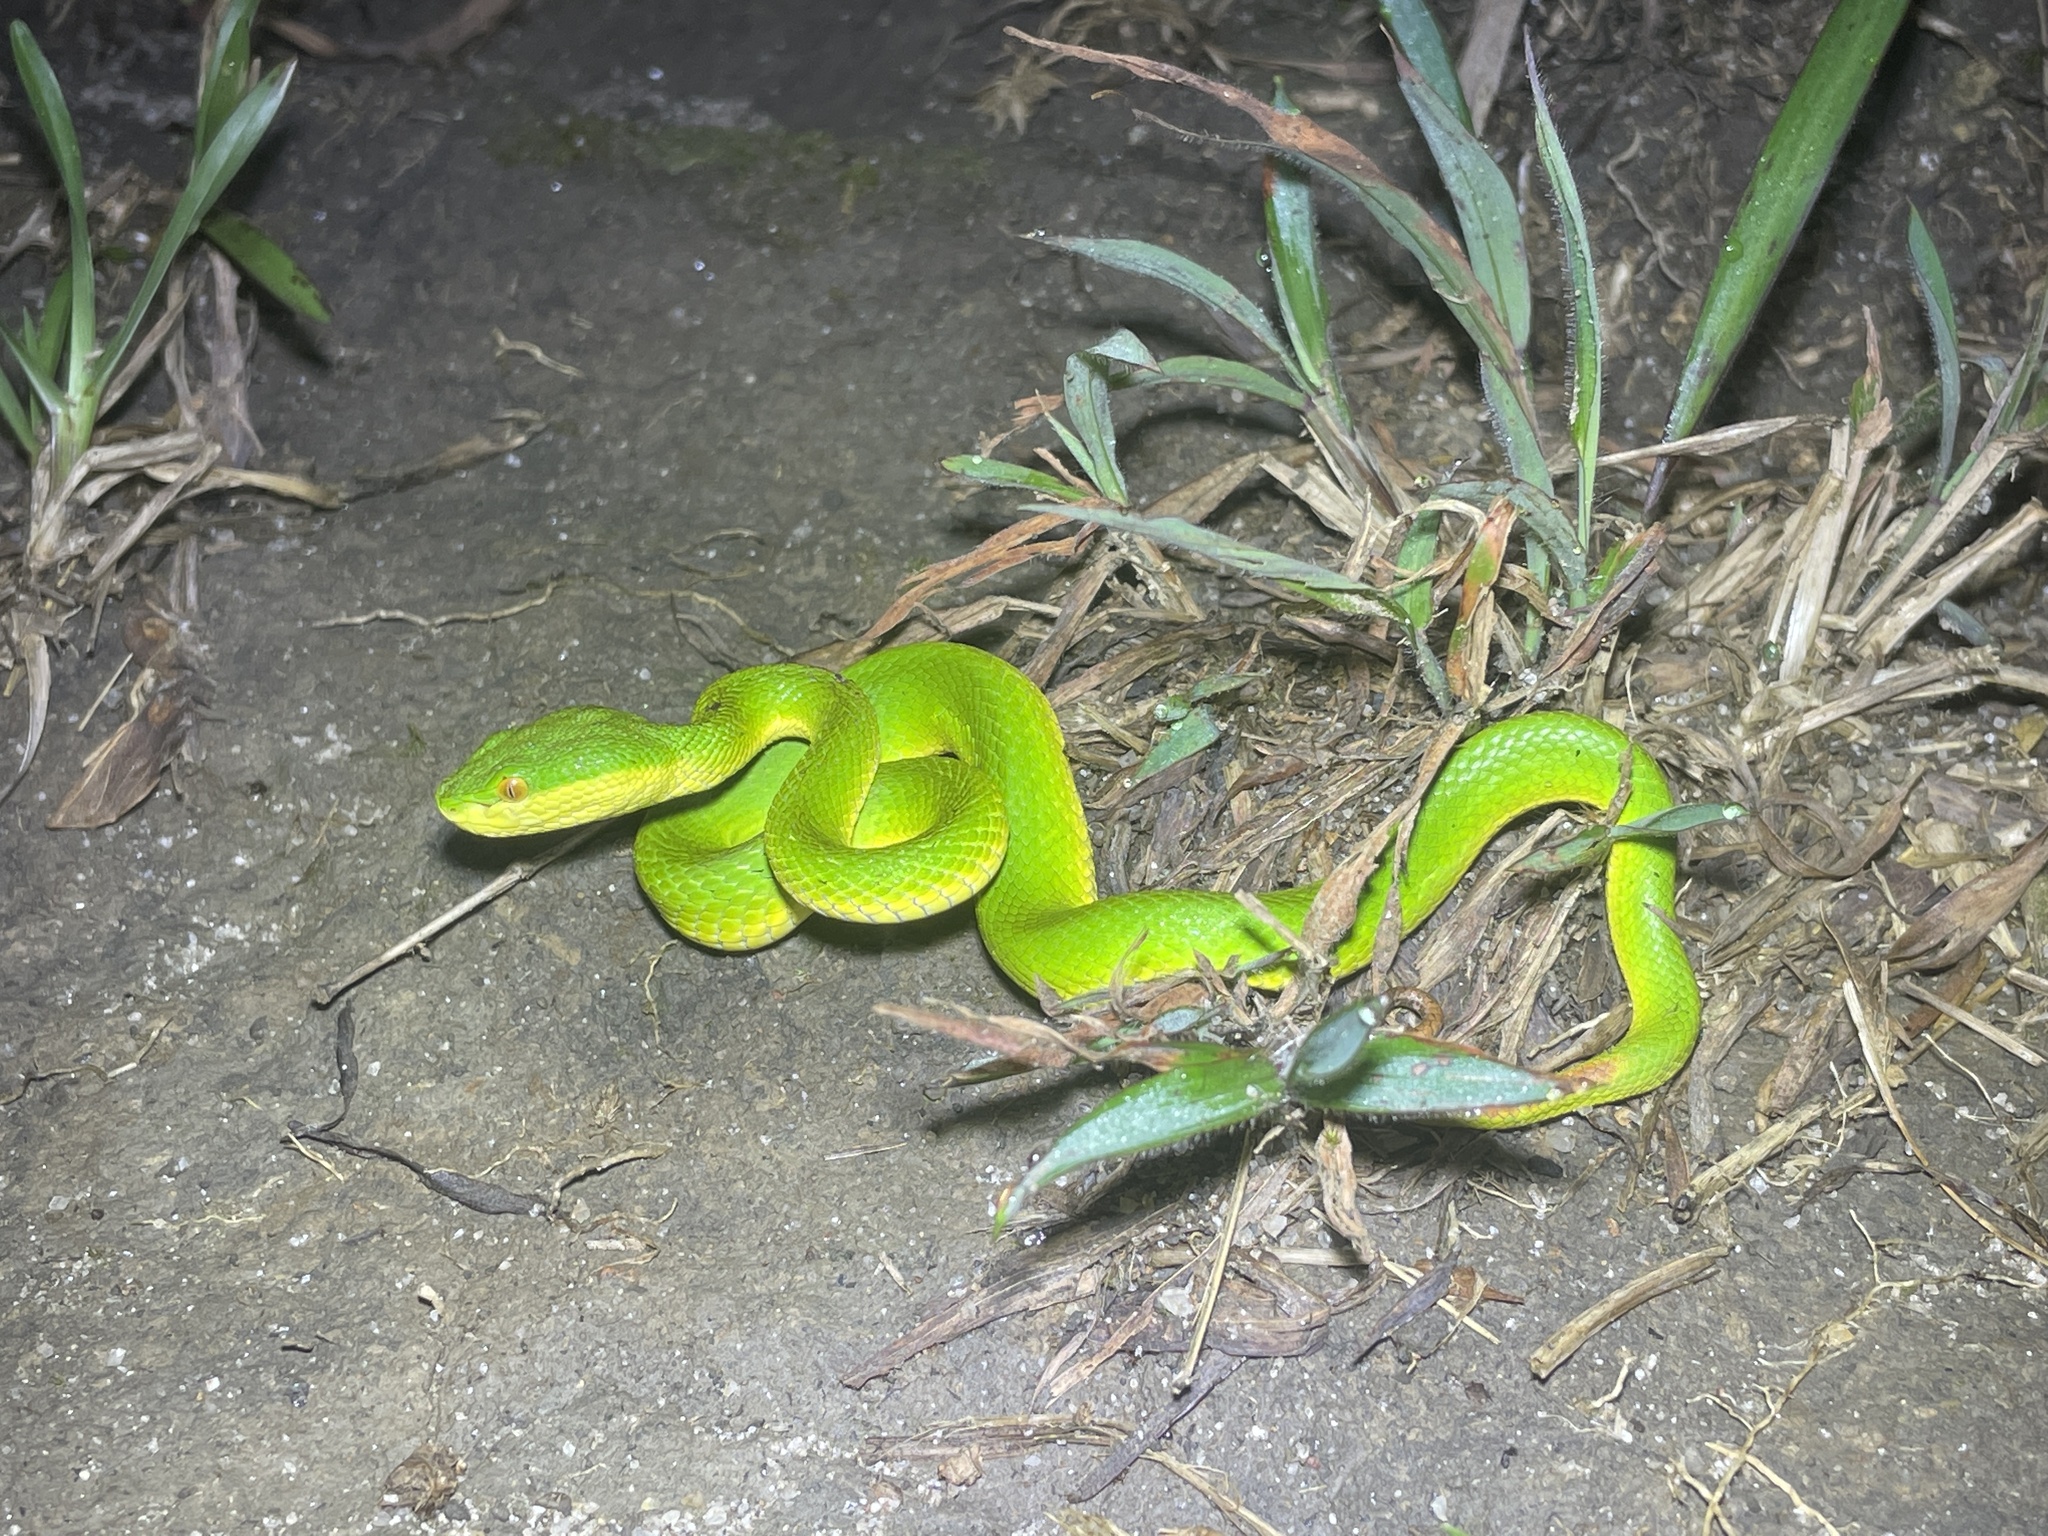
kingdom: Animalia
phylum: Chordata
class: Squamata
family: Viperidae
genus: Trimeresurus
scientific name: Trimeresurus albolabris
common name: White-lipped pitviper
